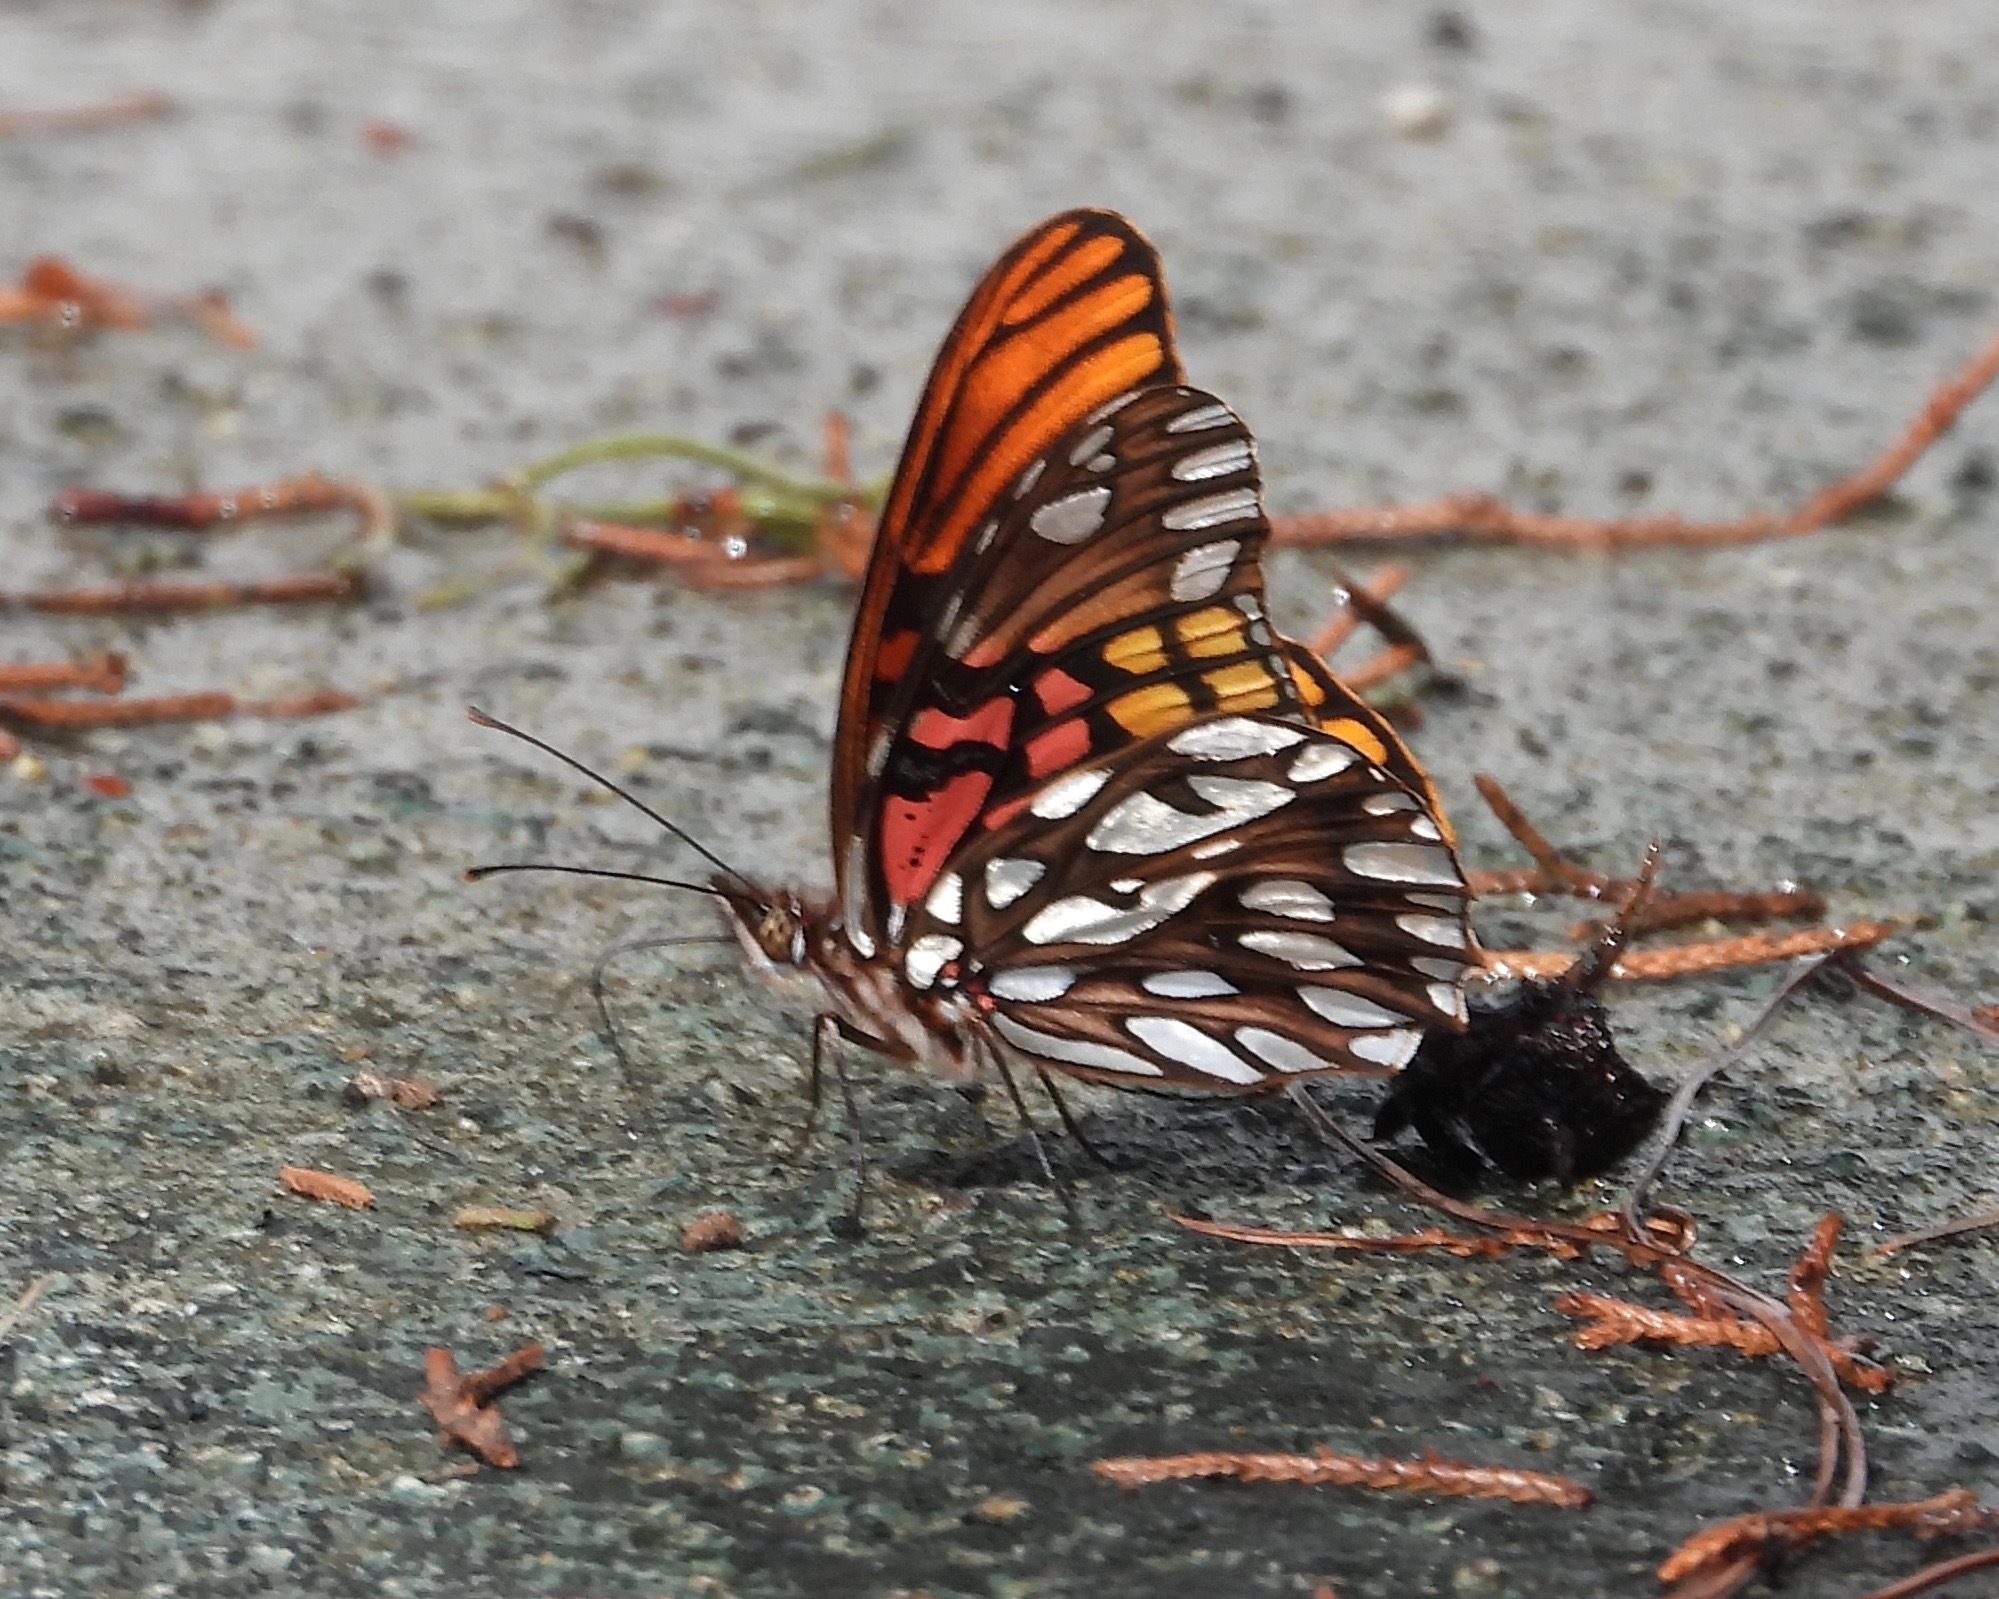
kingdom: Animalia
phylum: Arthropoda
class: Insecta
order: Lepidoptera
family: Nymphalidae
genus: Dione
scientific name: Dione moneta
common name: Mexican silverspot
